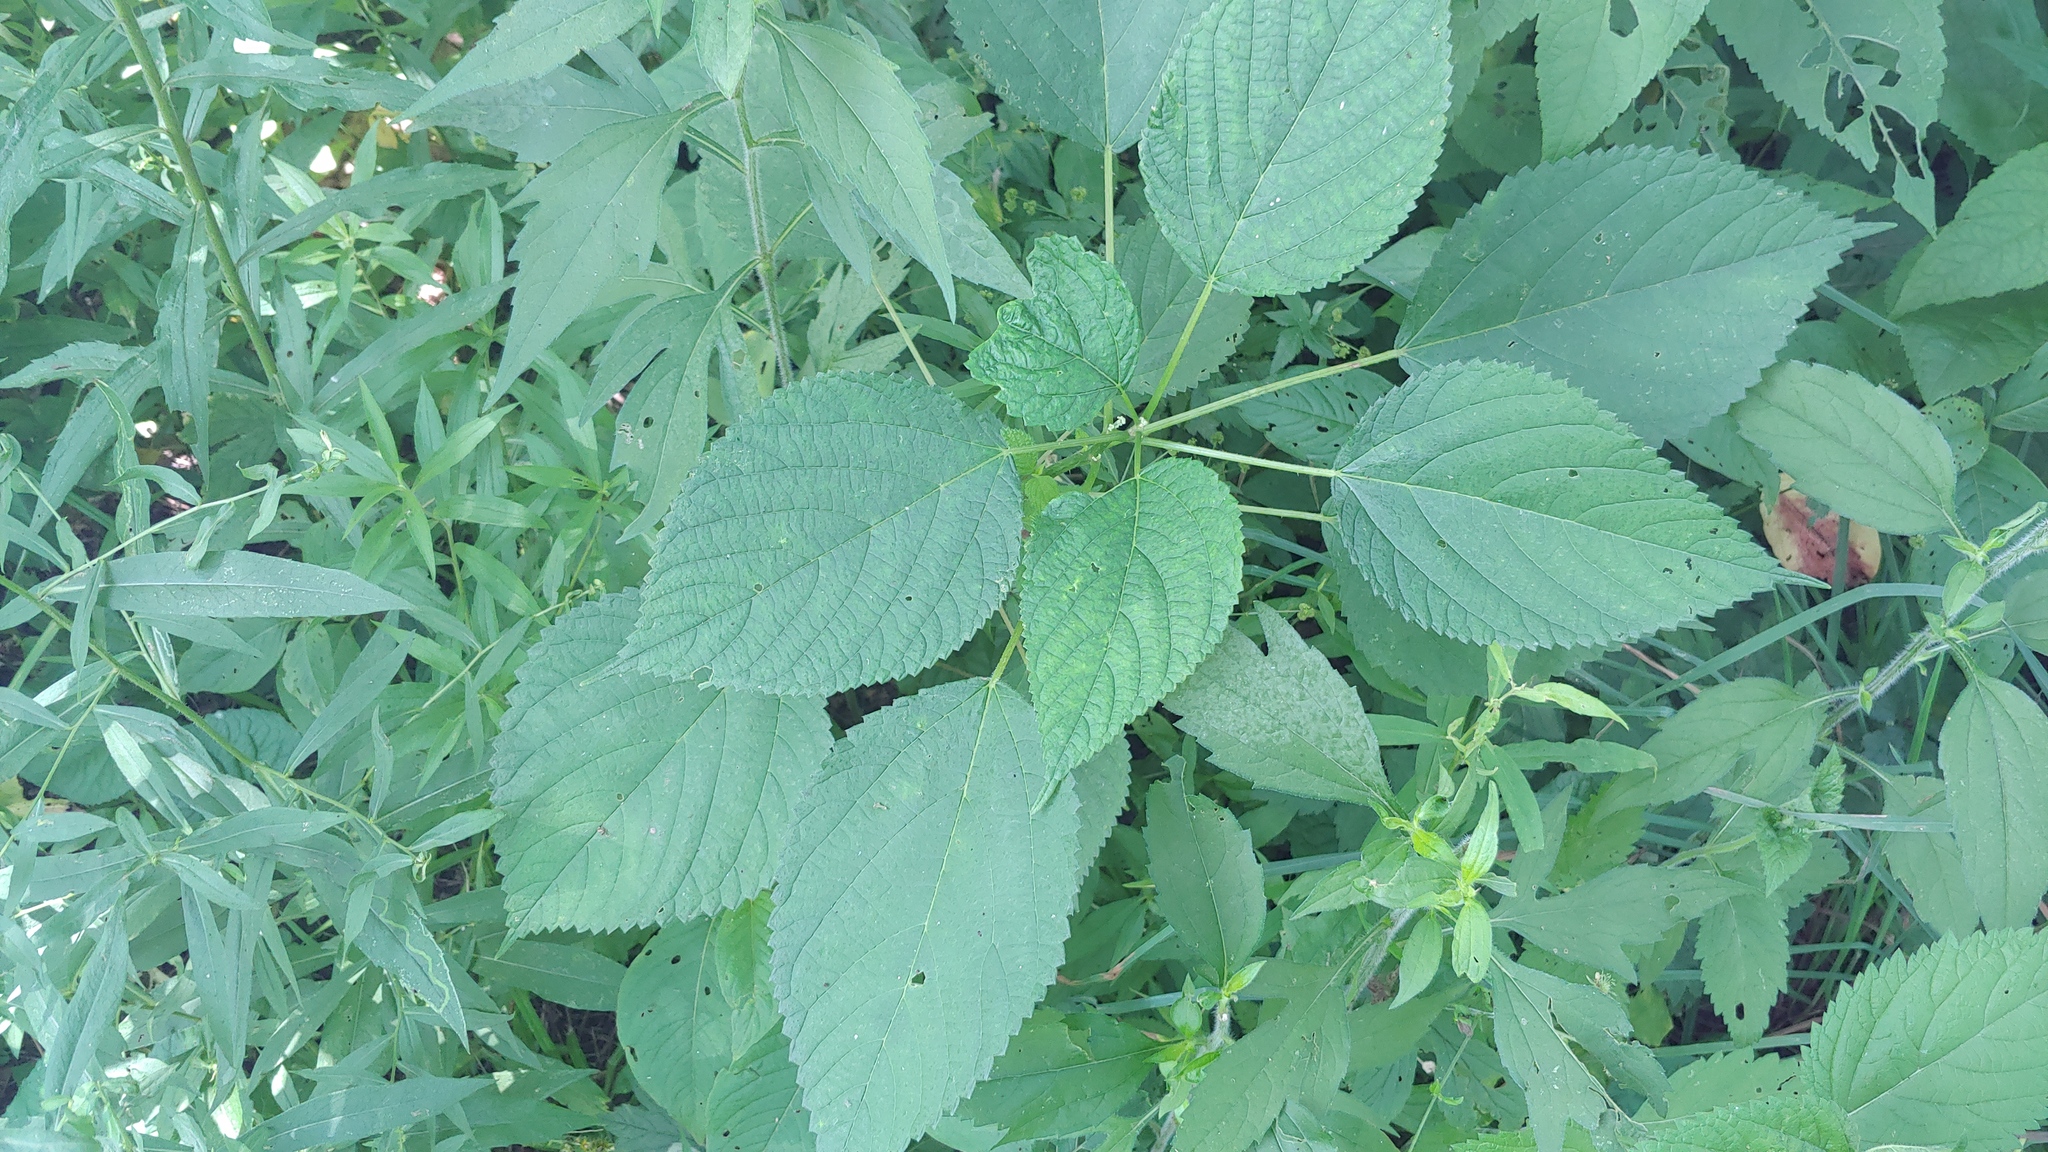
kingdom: Plantae
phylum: Tracheophyta
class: Magnoliopsida
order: Rosales
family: Urticaceae
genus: Laportea
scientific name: Laportea canadensis
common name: Canada nettle
